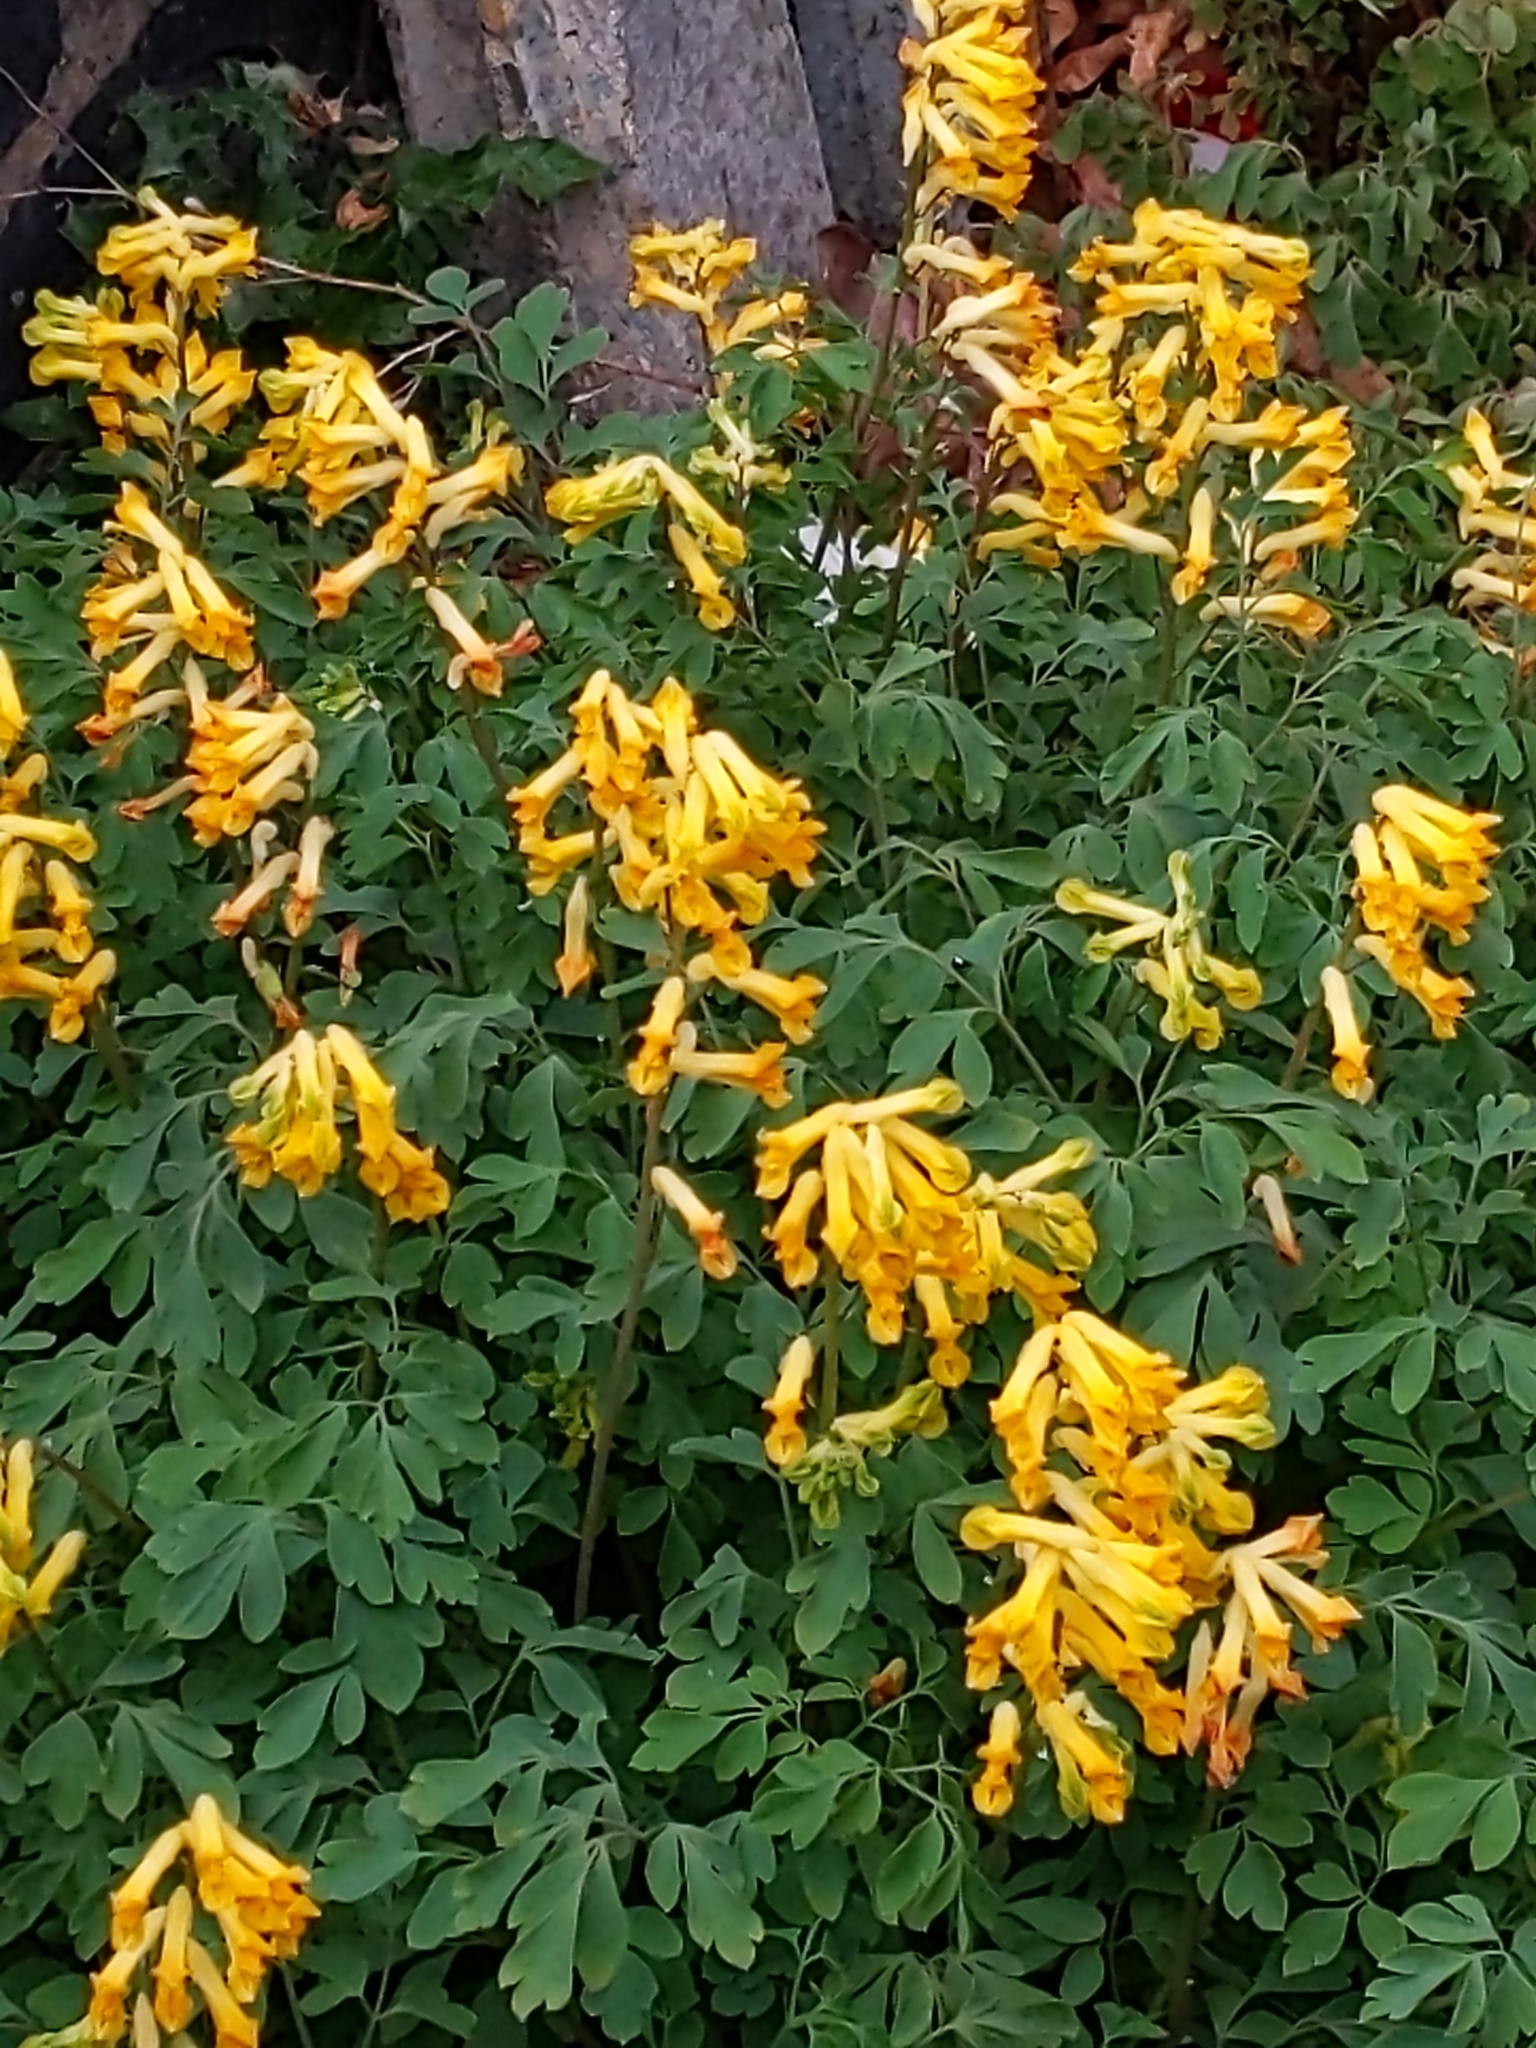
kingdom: Plantae
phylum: Tracheophyta
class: Magnoliopsida
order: Ranunculales
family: Papaveraceae
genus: Pseudofumaria
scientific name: Pseudofumaria lutea
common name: Yellow corydalis
